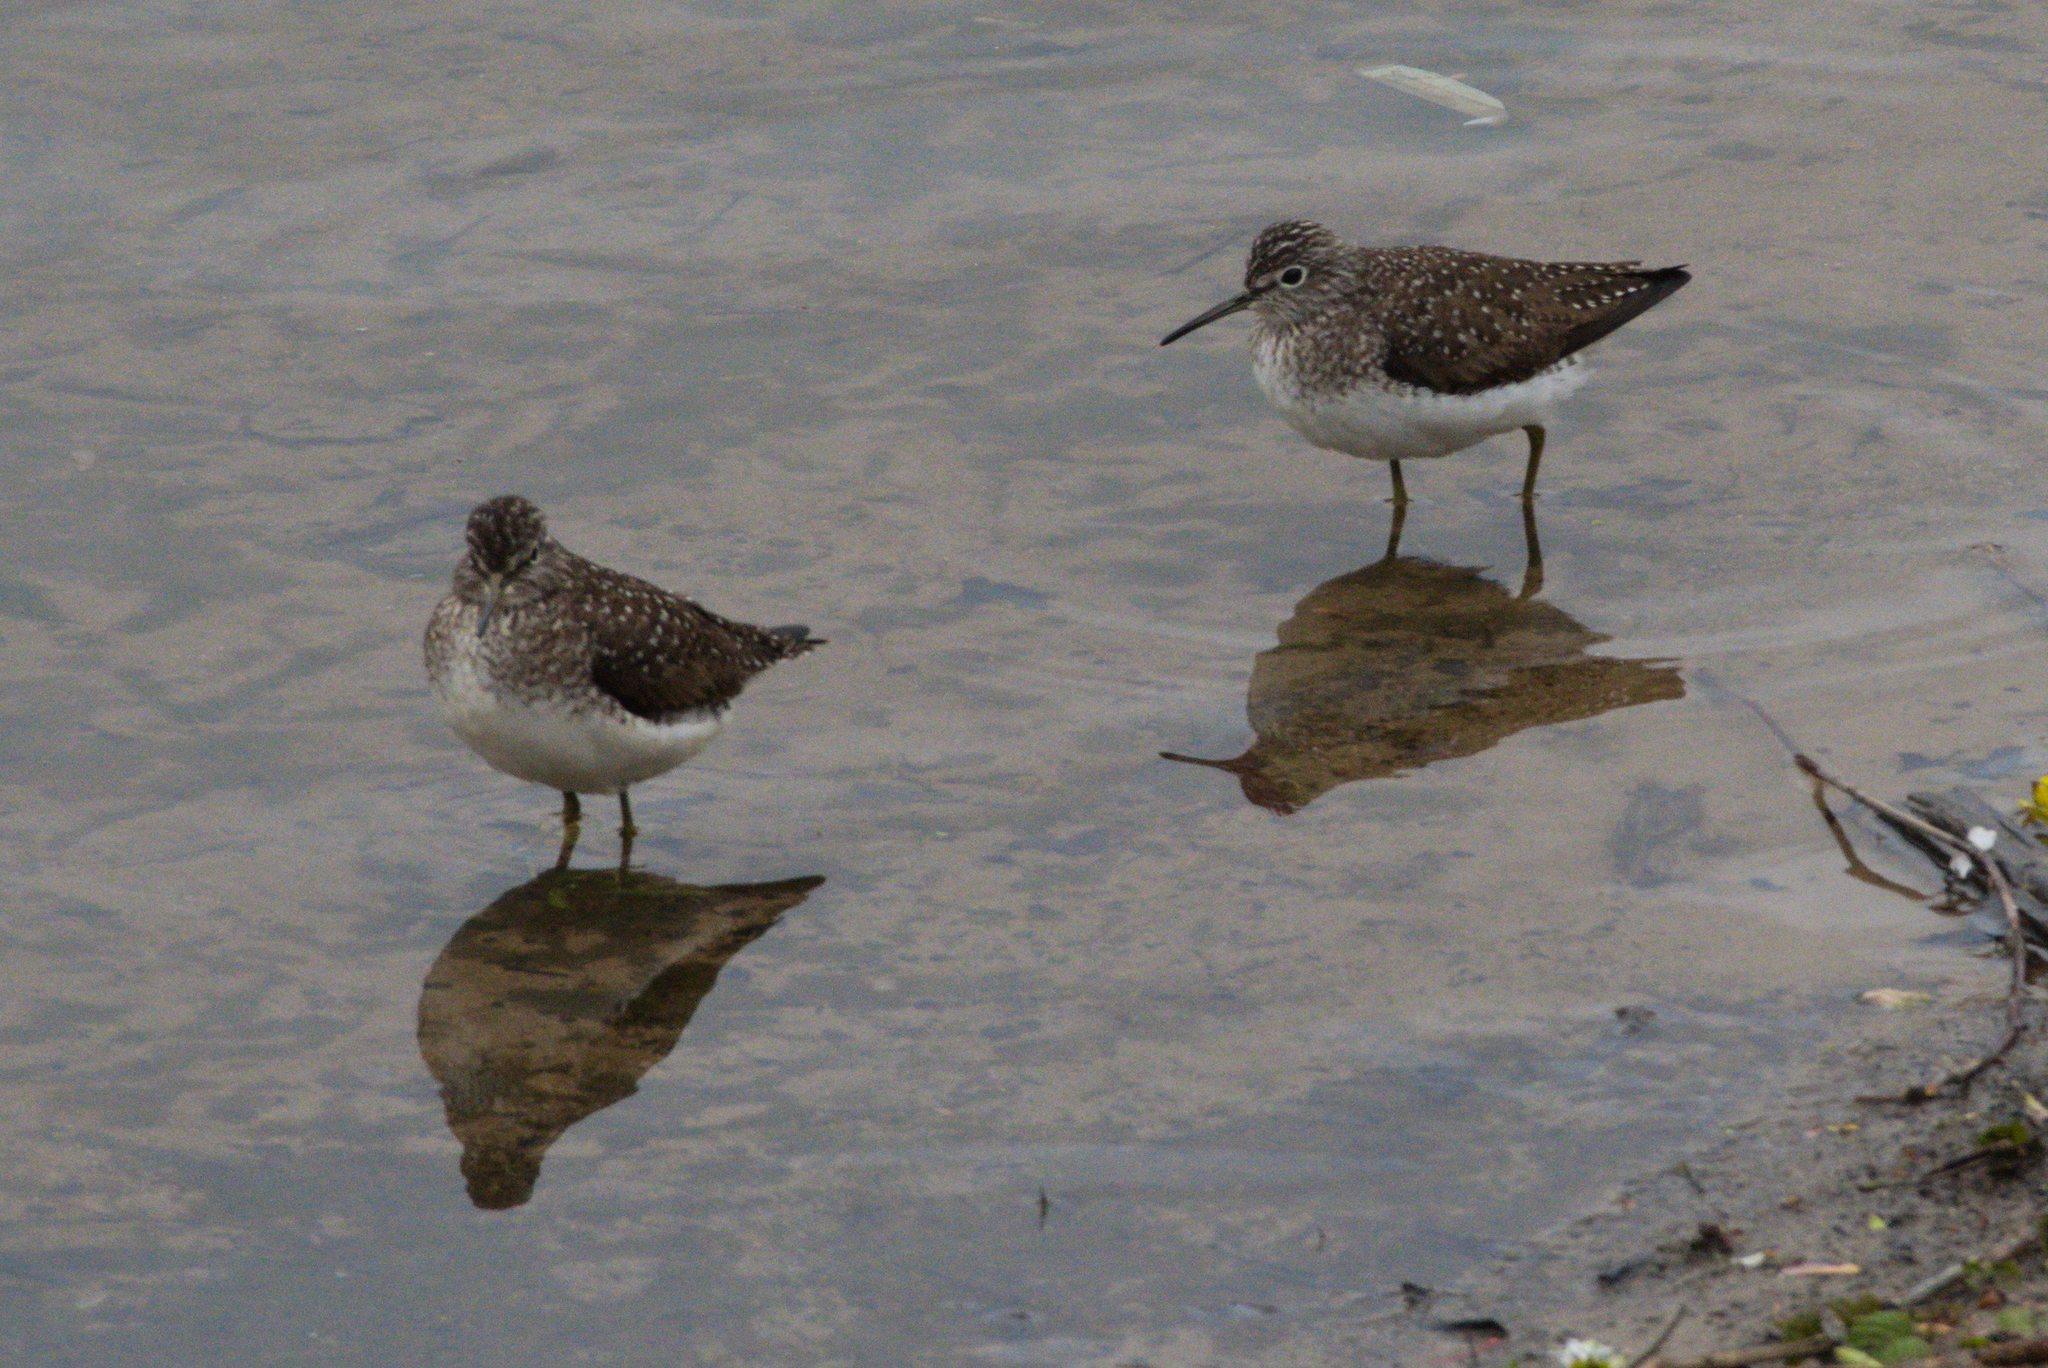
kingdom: Animalia
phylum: Chordata
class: Aves
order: Charadriiformes
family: Scolopacidae
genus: Tringa
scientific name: Tringa solitaria
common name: Solitary sandpiper
